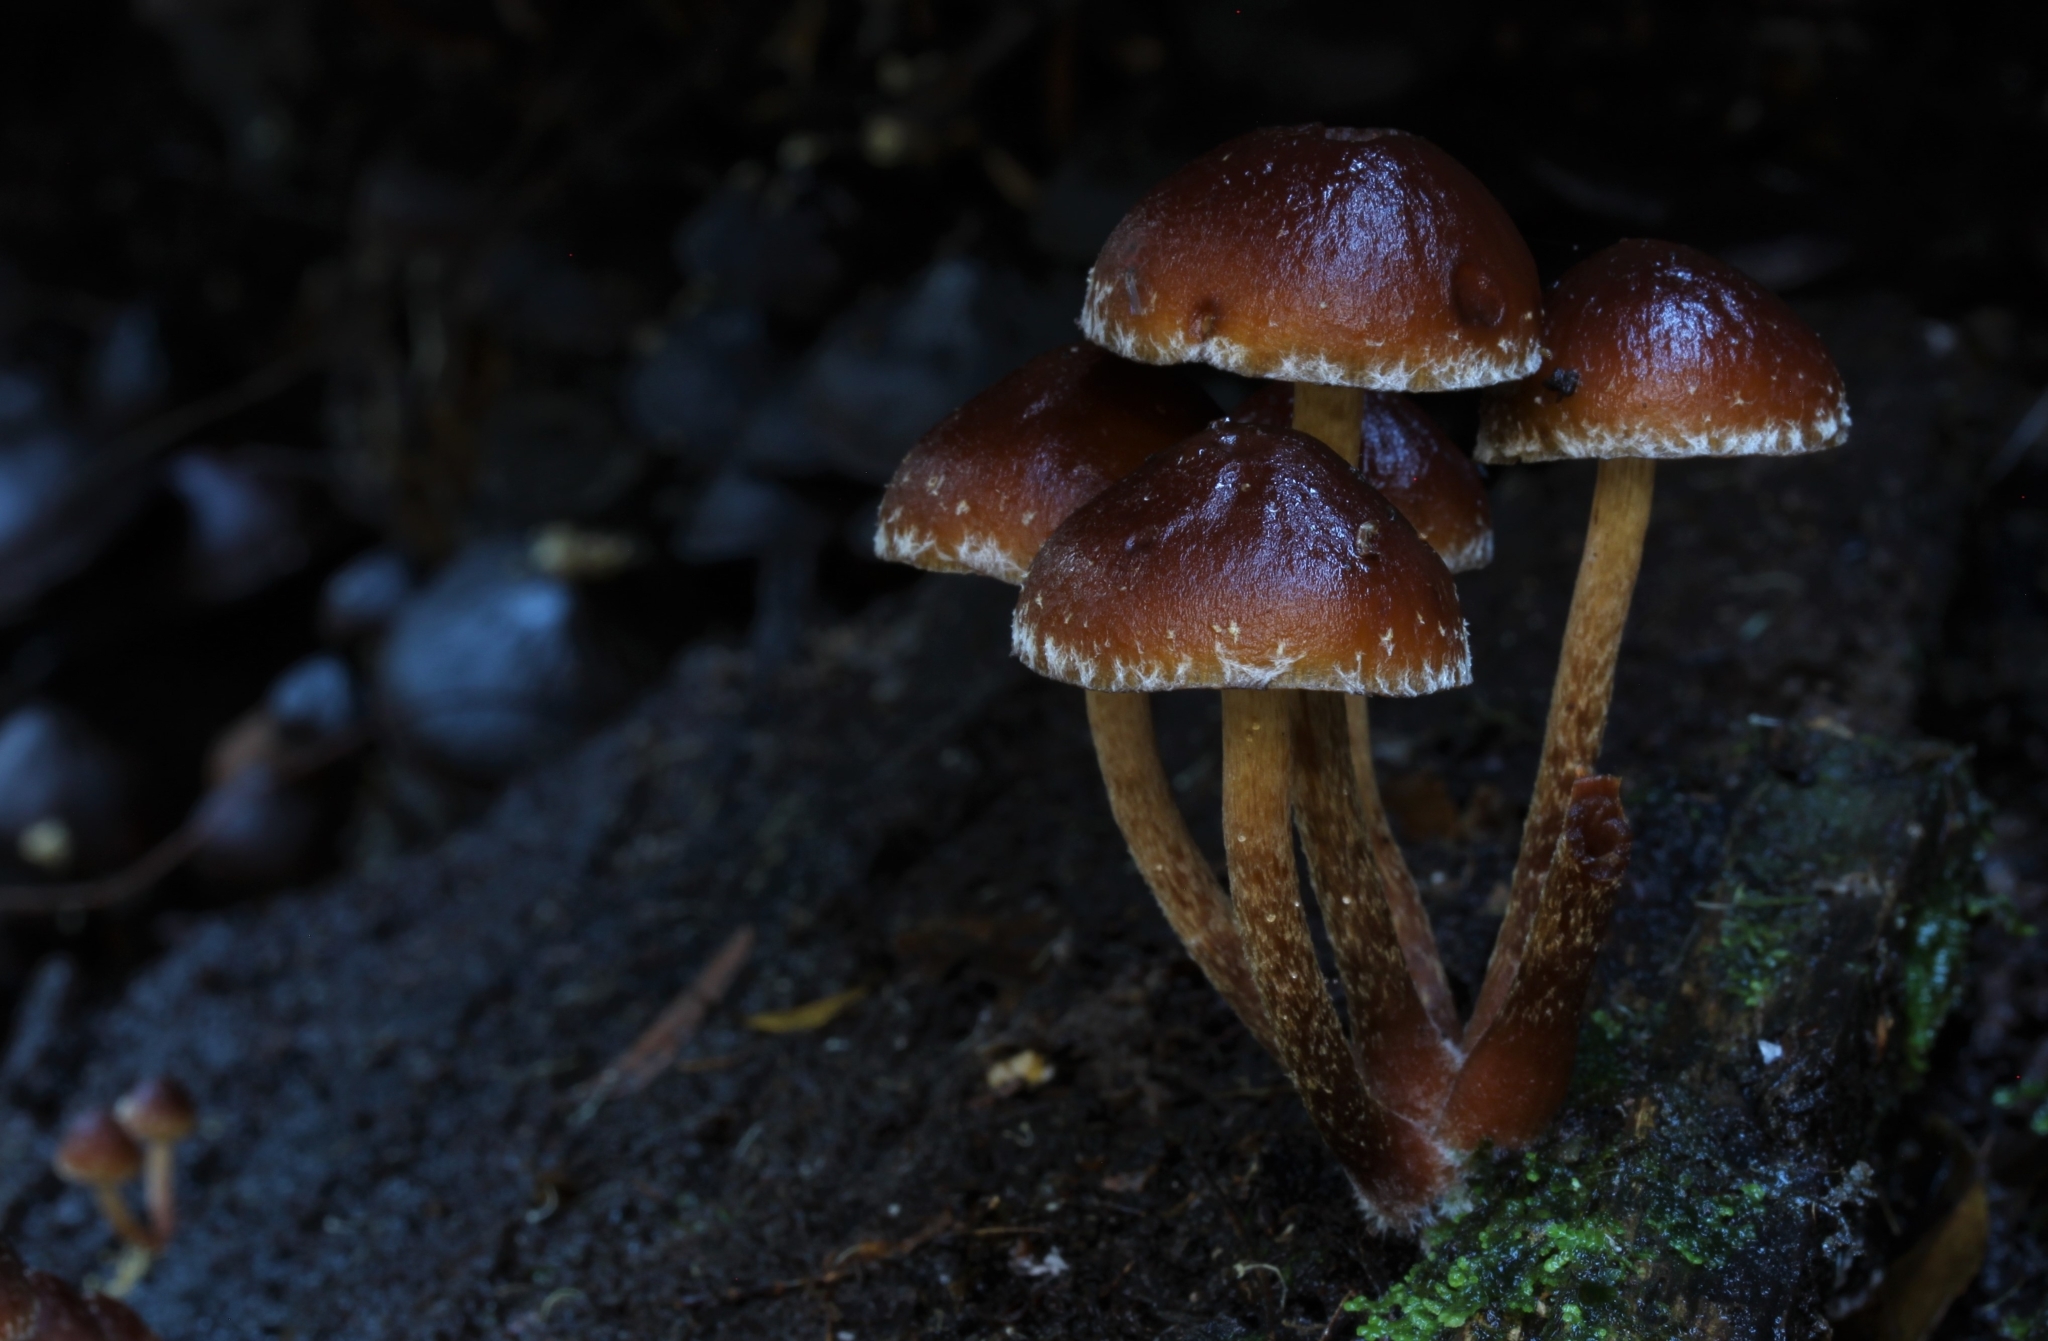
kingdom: Fungi
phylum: Basidiomycota
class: Agaricomycetes
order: Agaricales
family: Strophariaceae
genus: Hypholoma
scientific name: Hypholoma brunneum
